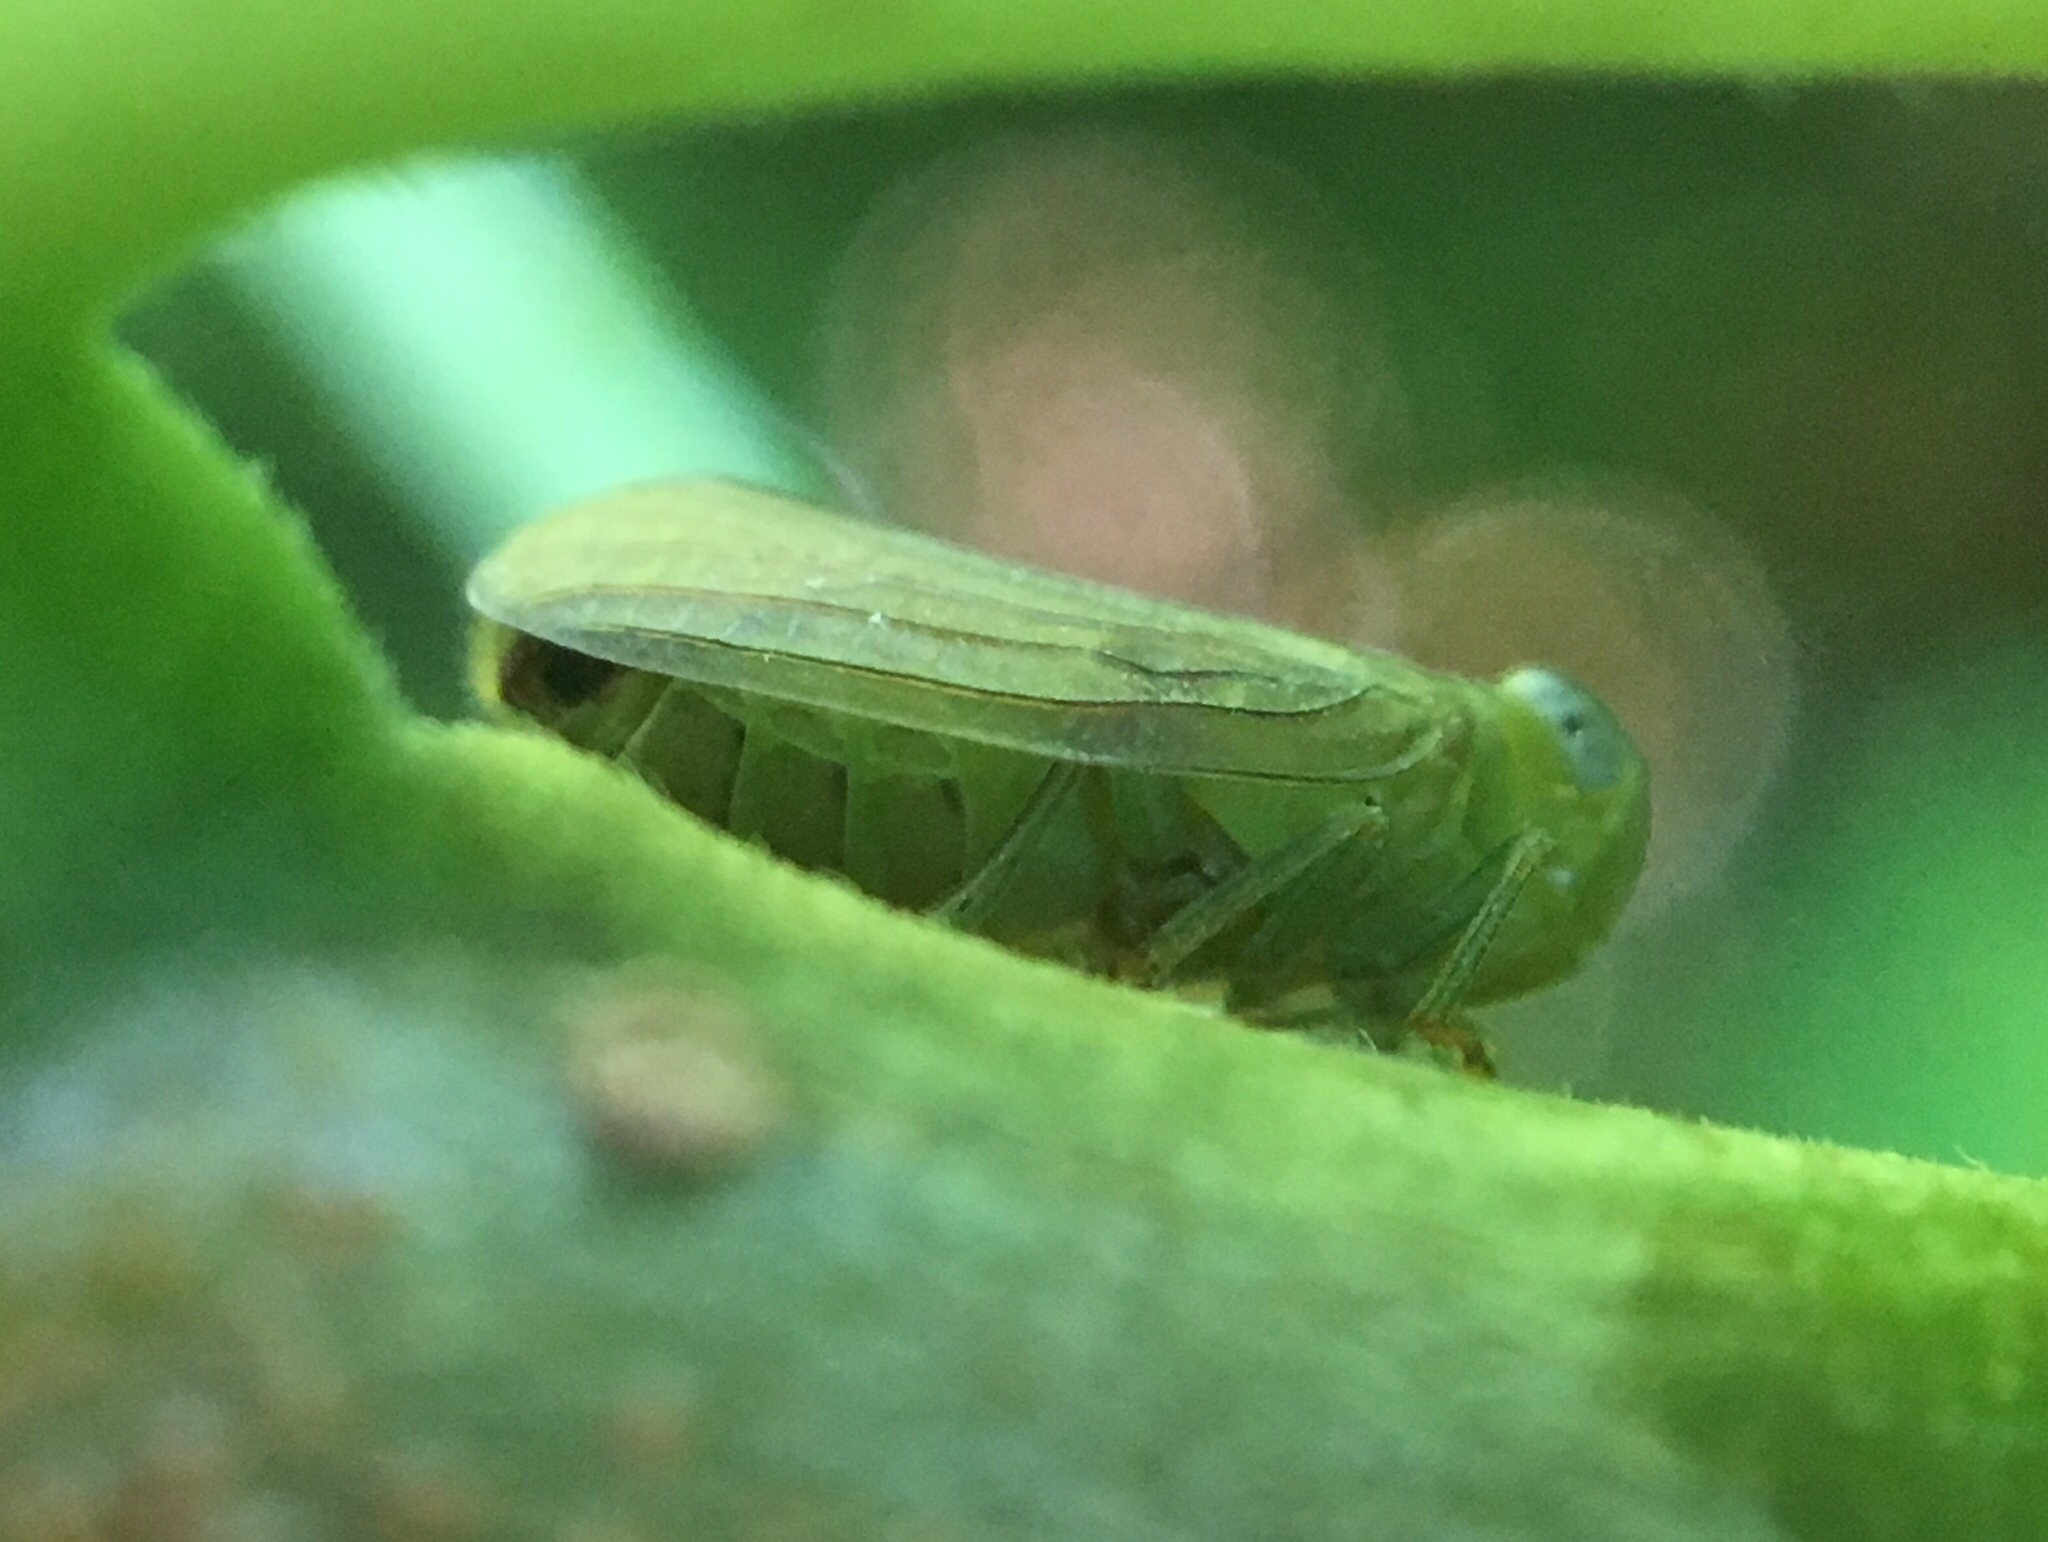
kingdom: Animalia
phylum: Arthropoda
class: Insecta
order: Hemiptera
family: Issidae
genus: Aplos
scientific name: Aplos simplex
